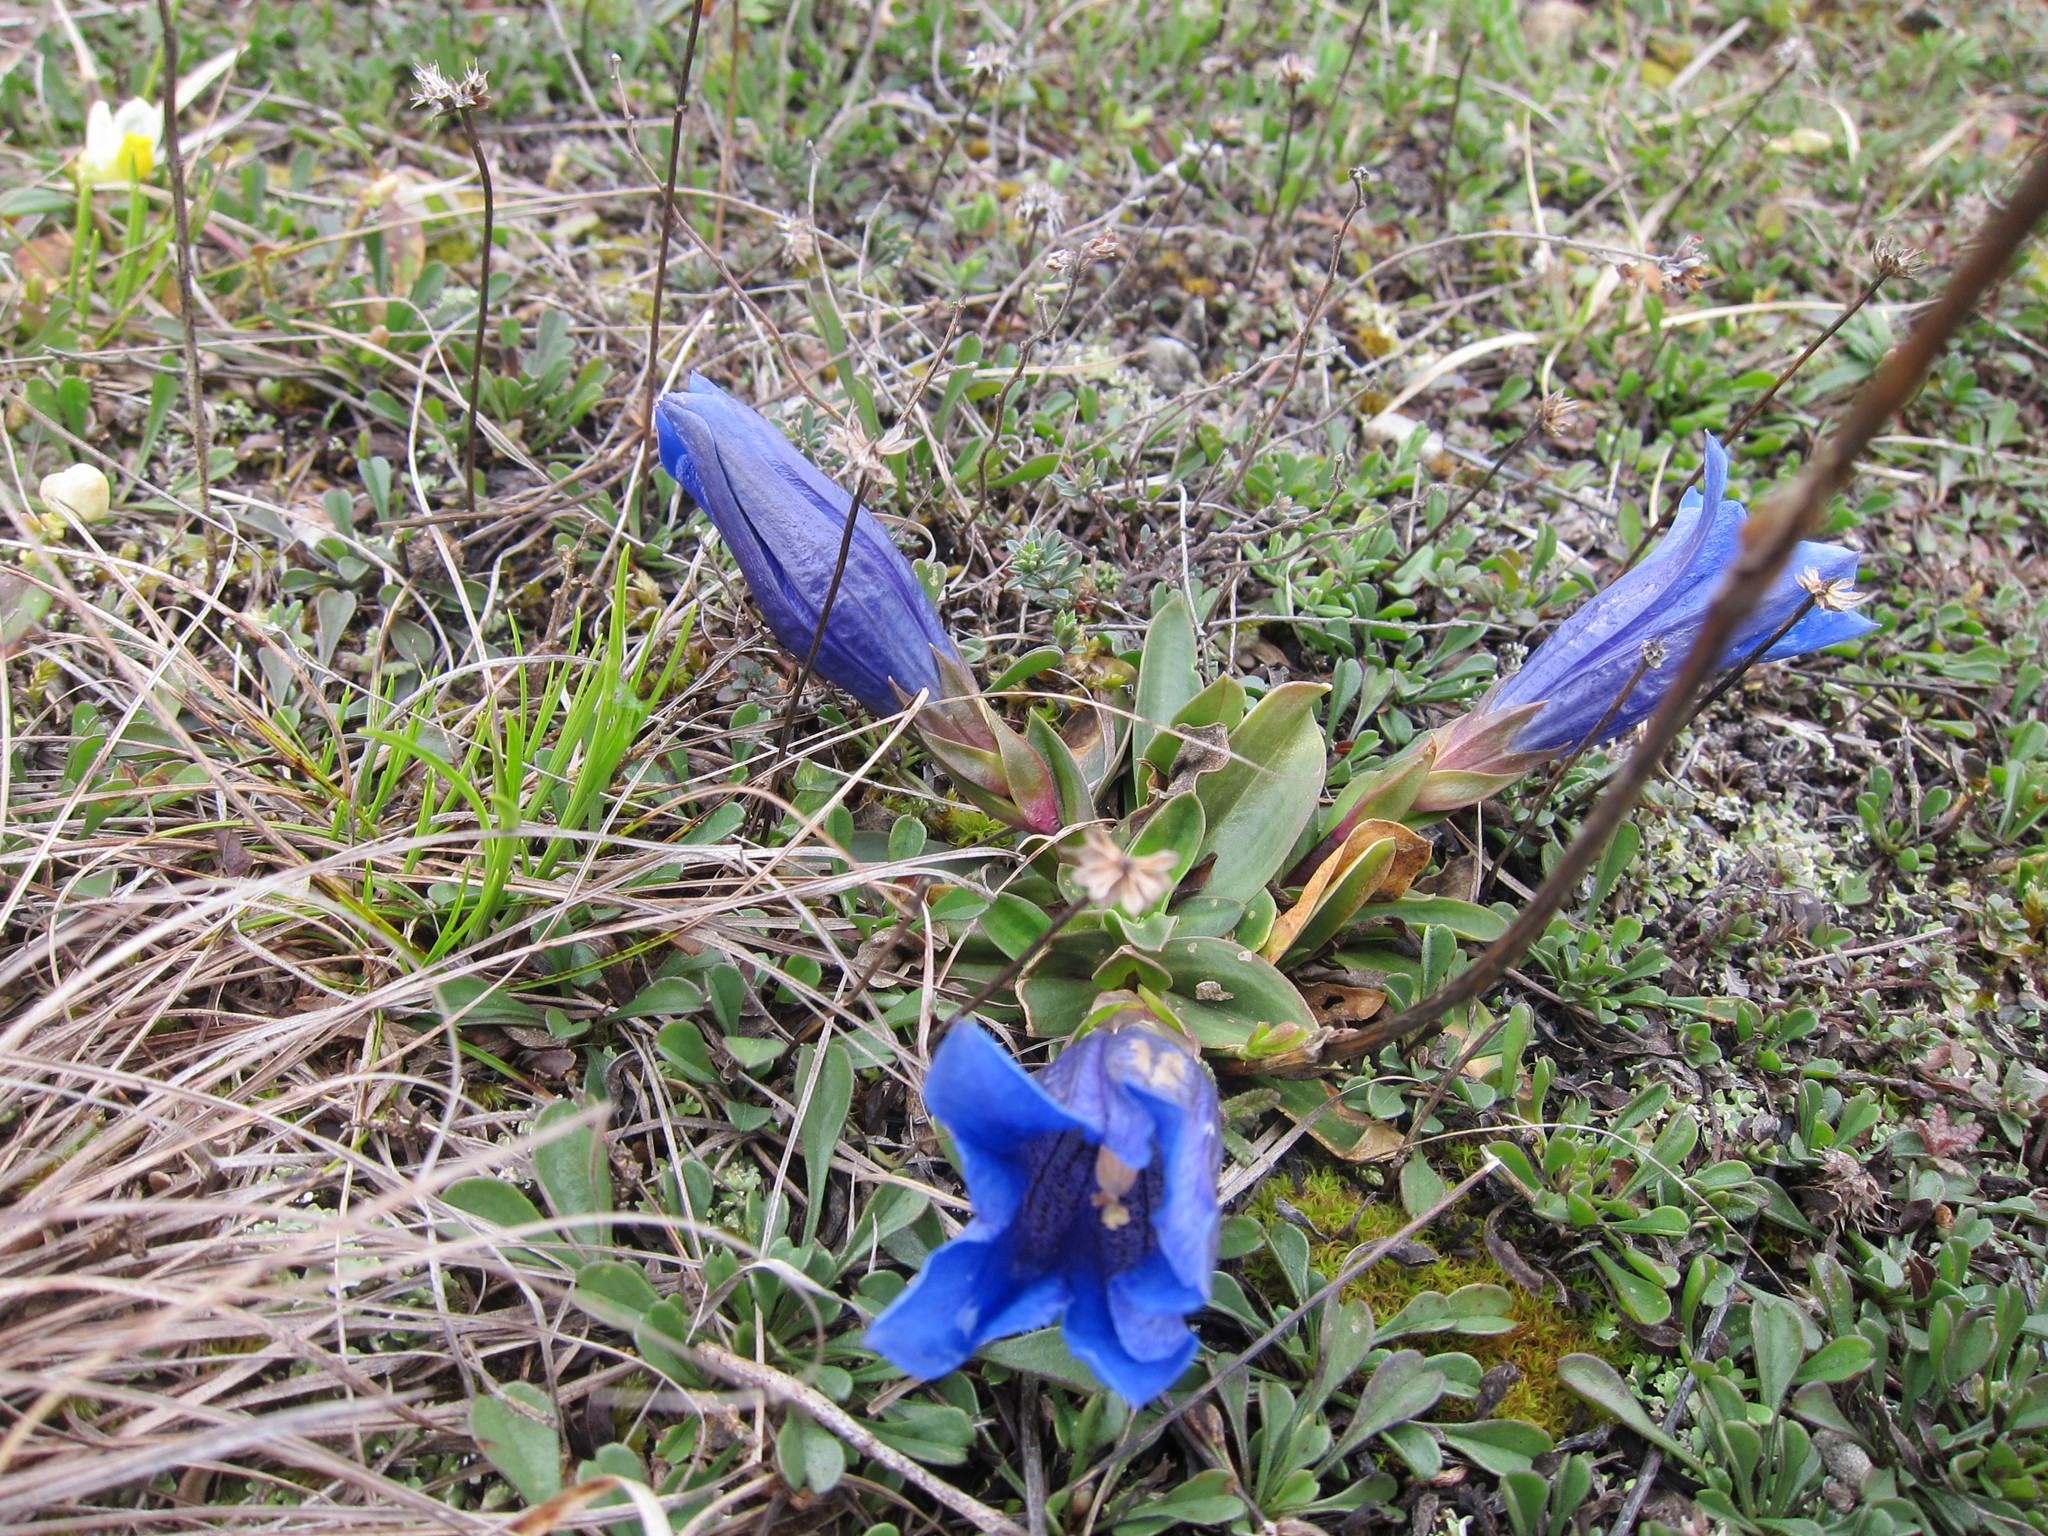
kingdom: Plantae
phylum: Tracheophyta
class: Magnoliopsida
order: Gentianales
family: Gentianaceae
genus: Gentiana
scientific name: Gentiana clusii
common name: Trumpet gentian
